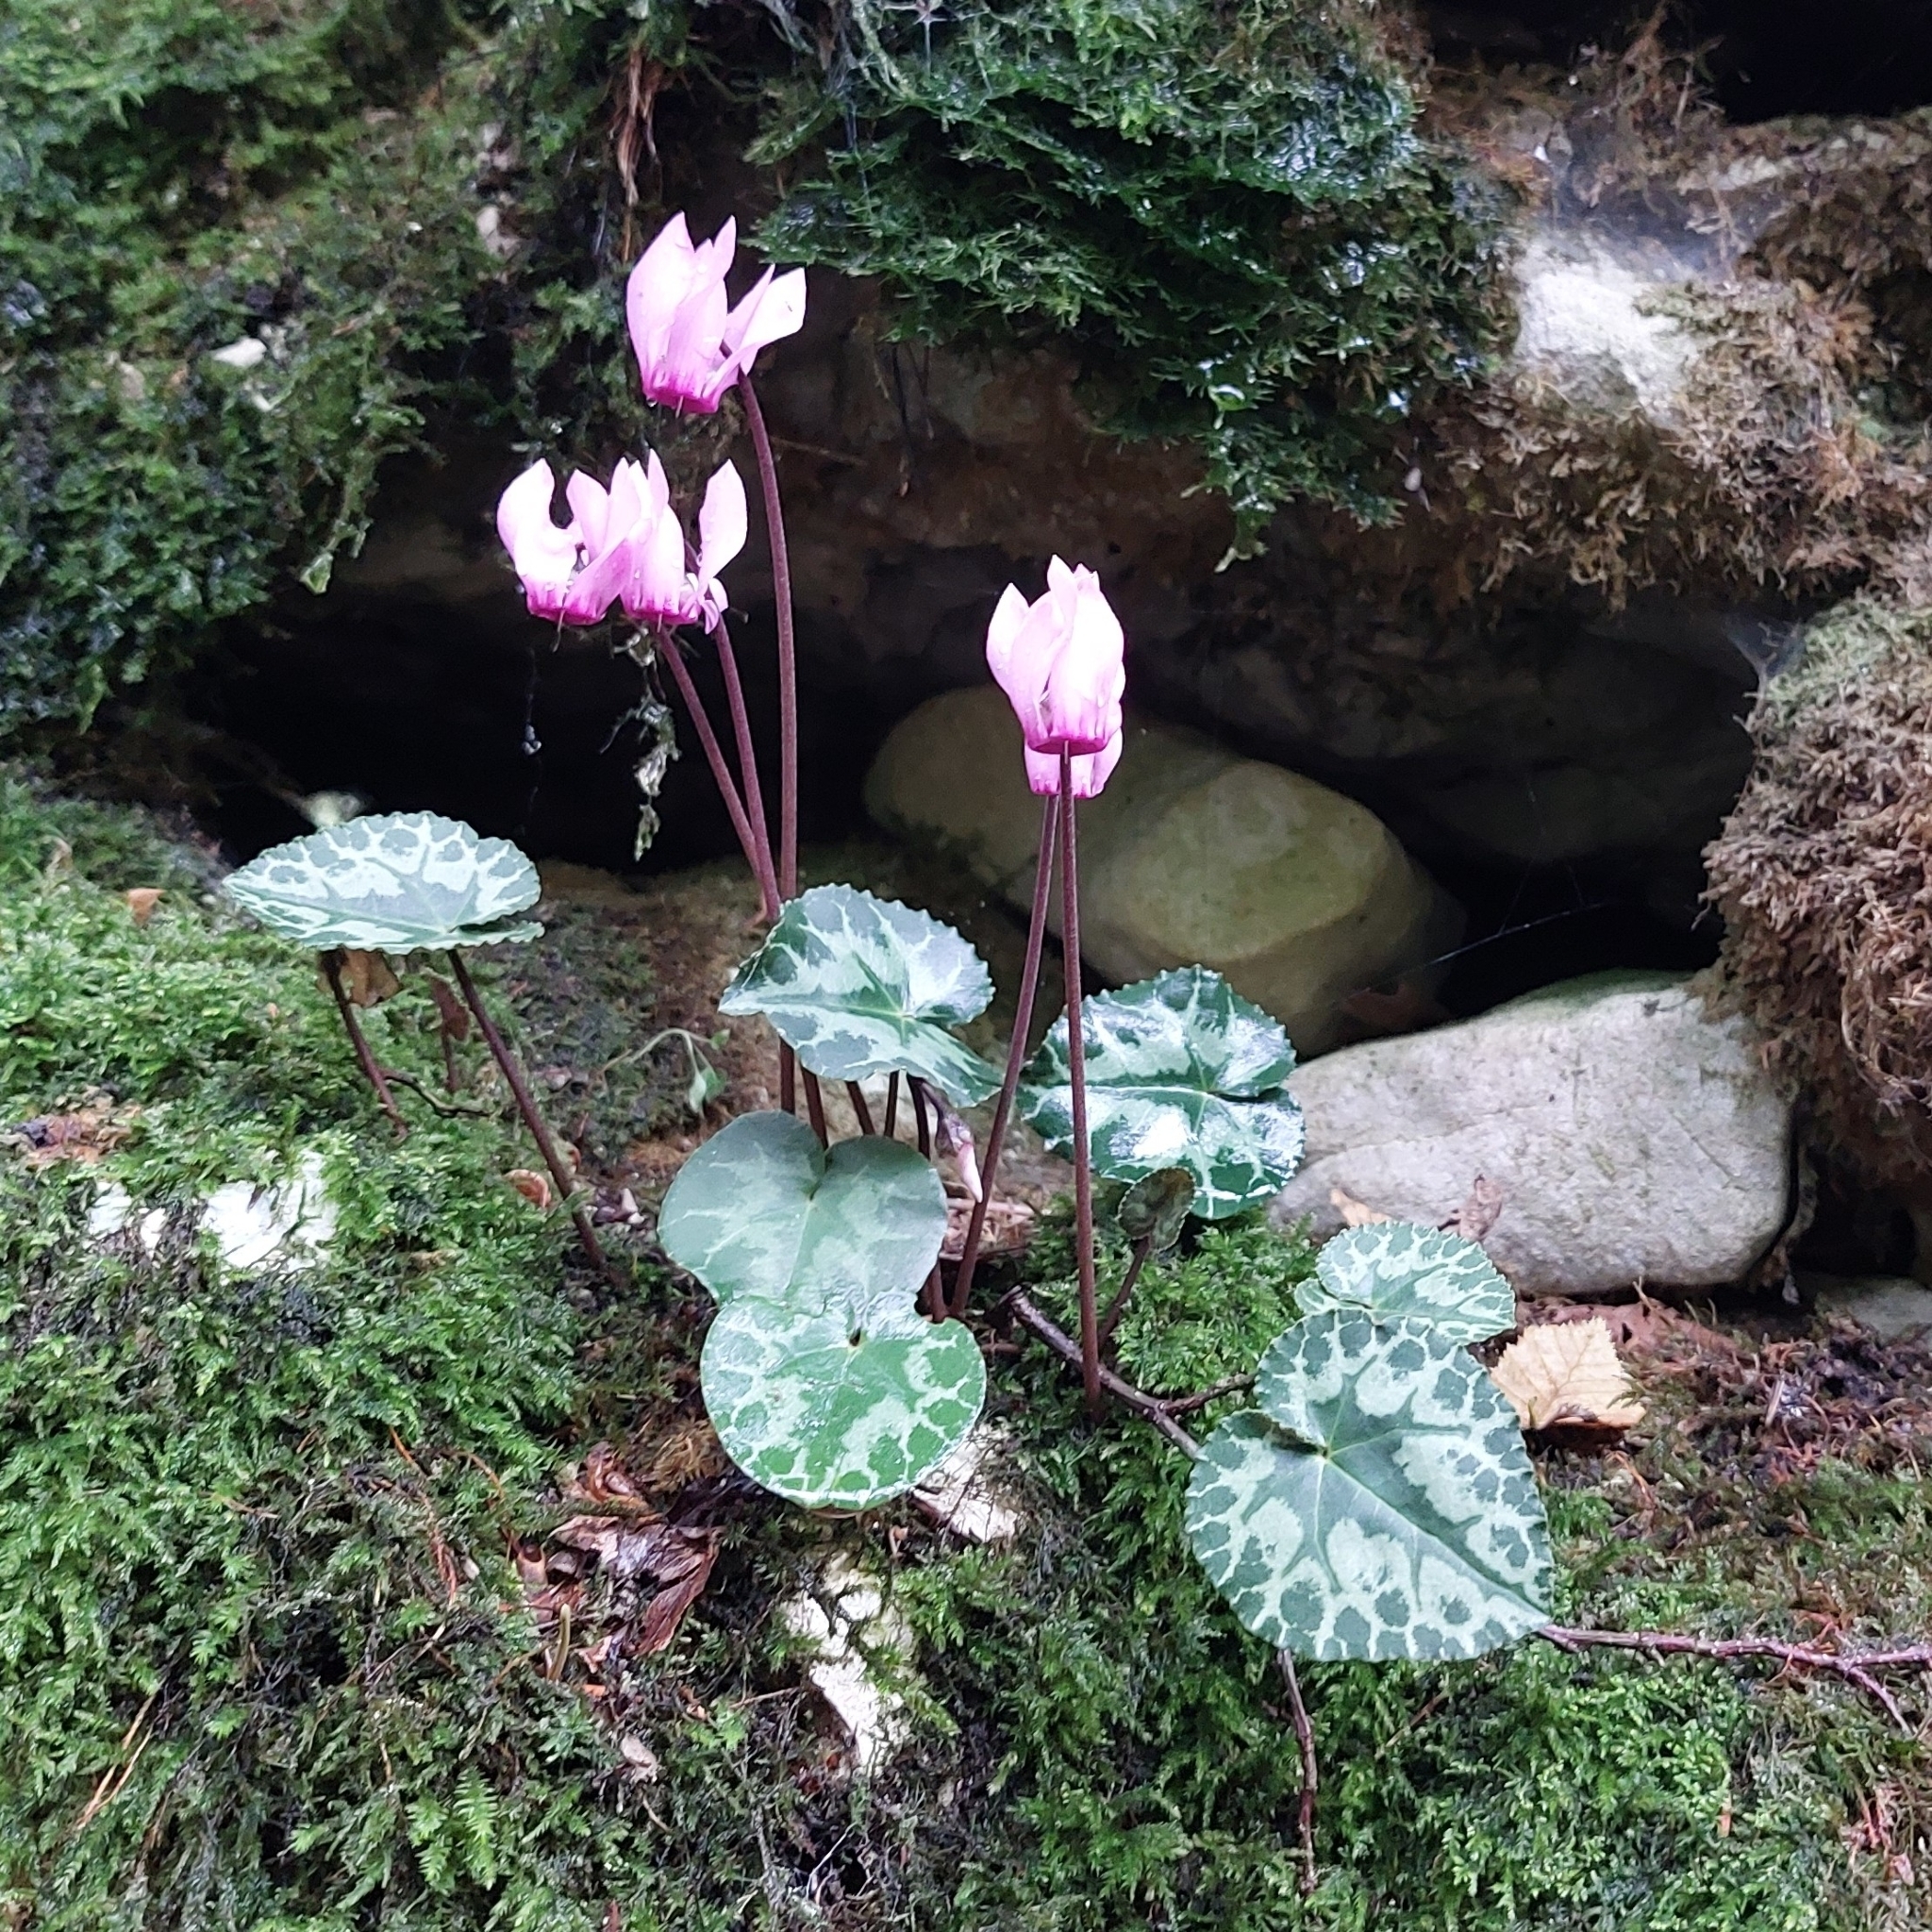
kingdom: Plantae
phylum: Tracheophyta
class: Magnoliopsida
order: Ericales
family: Primulaceae
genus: Cyclamen
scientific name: Cyclamen purpurascens
